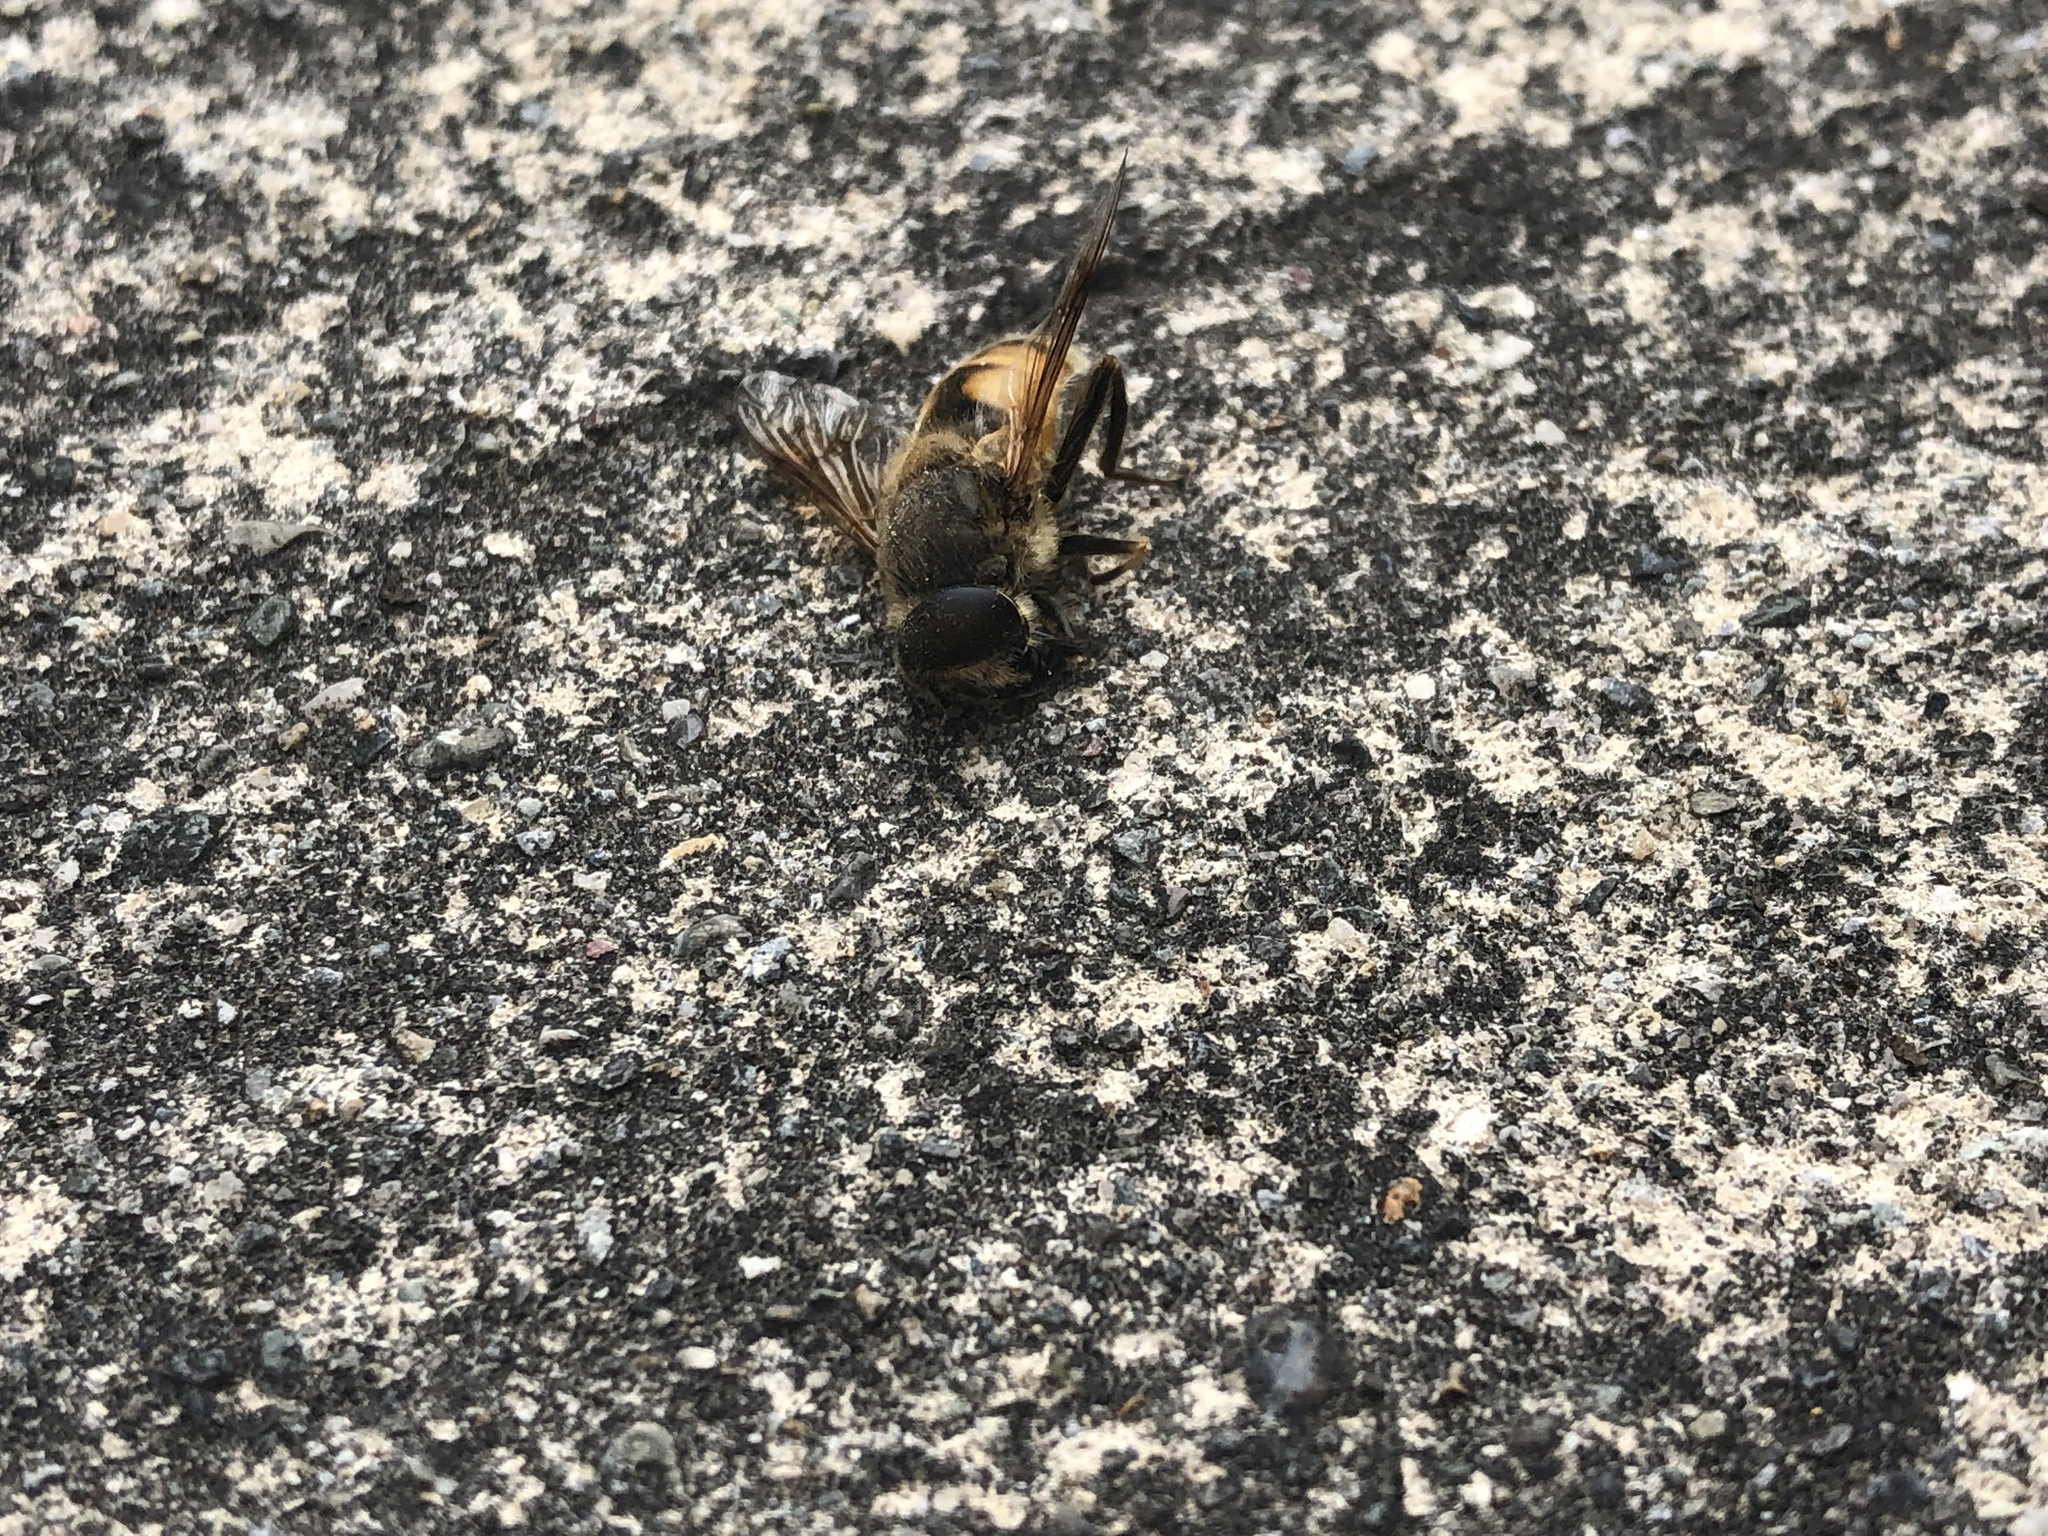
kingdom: Animalia
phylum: Arthropoda
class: Insecta
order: Diptera
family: Syrphidae
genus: Eristalis
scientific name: Eristalis tenax
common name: Drone fly
